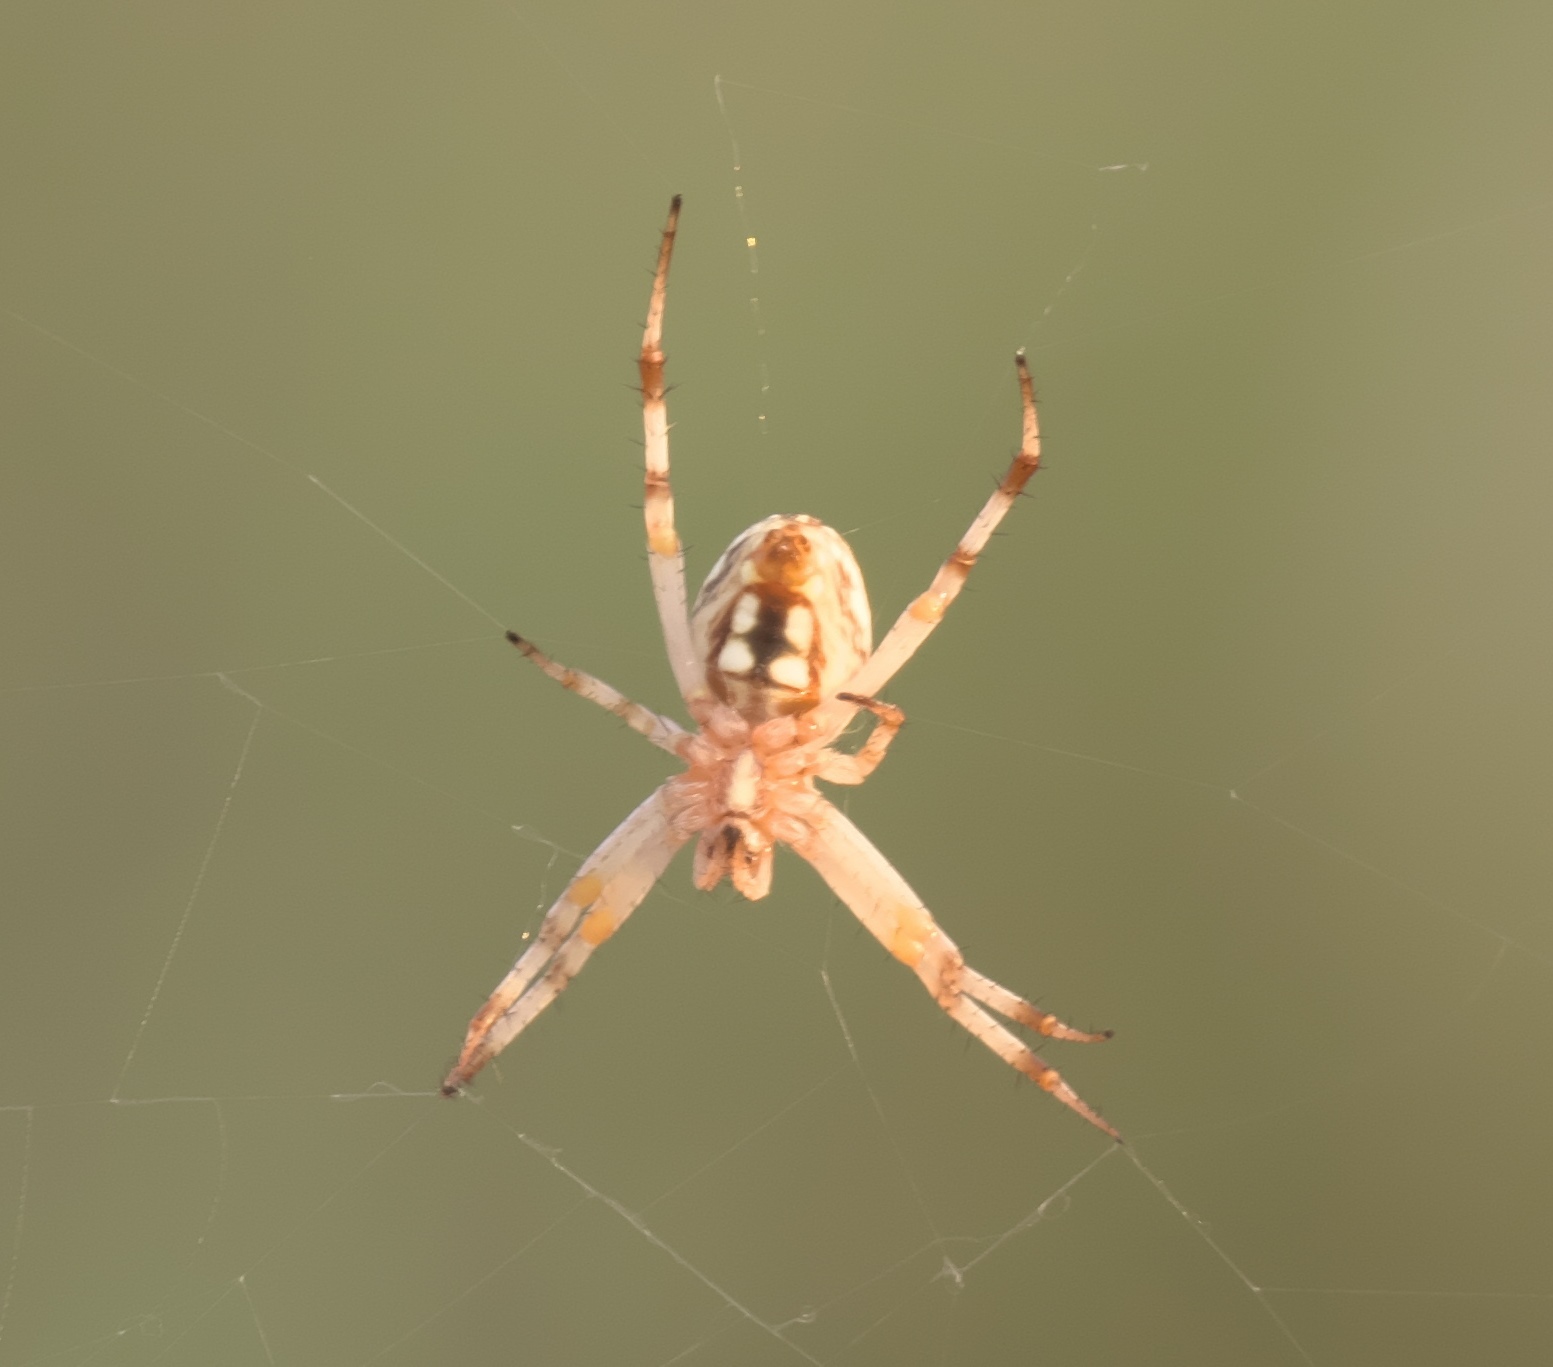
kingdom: Animalia
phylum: Arthropoda
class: Arachnida
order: Araneae
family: Araneidae
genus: Neoscona
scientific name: Neoscona oaxacensis
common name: Orb weavers
